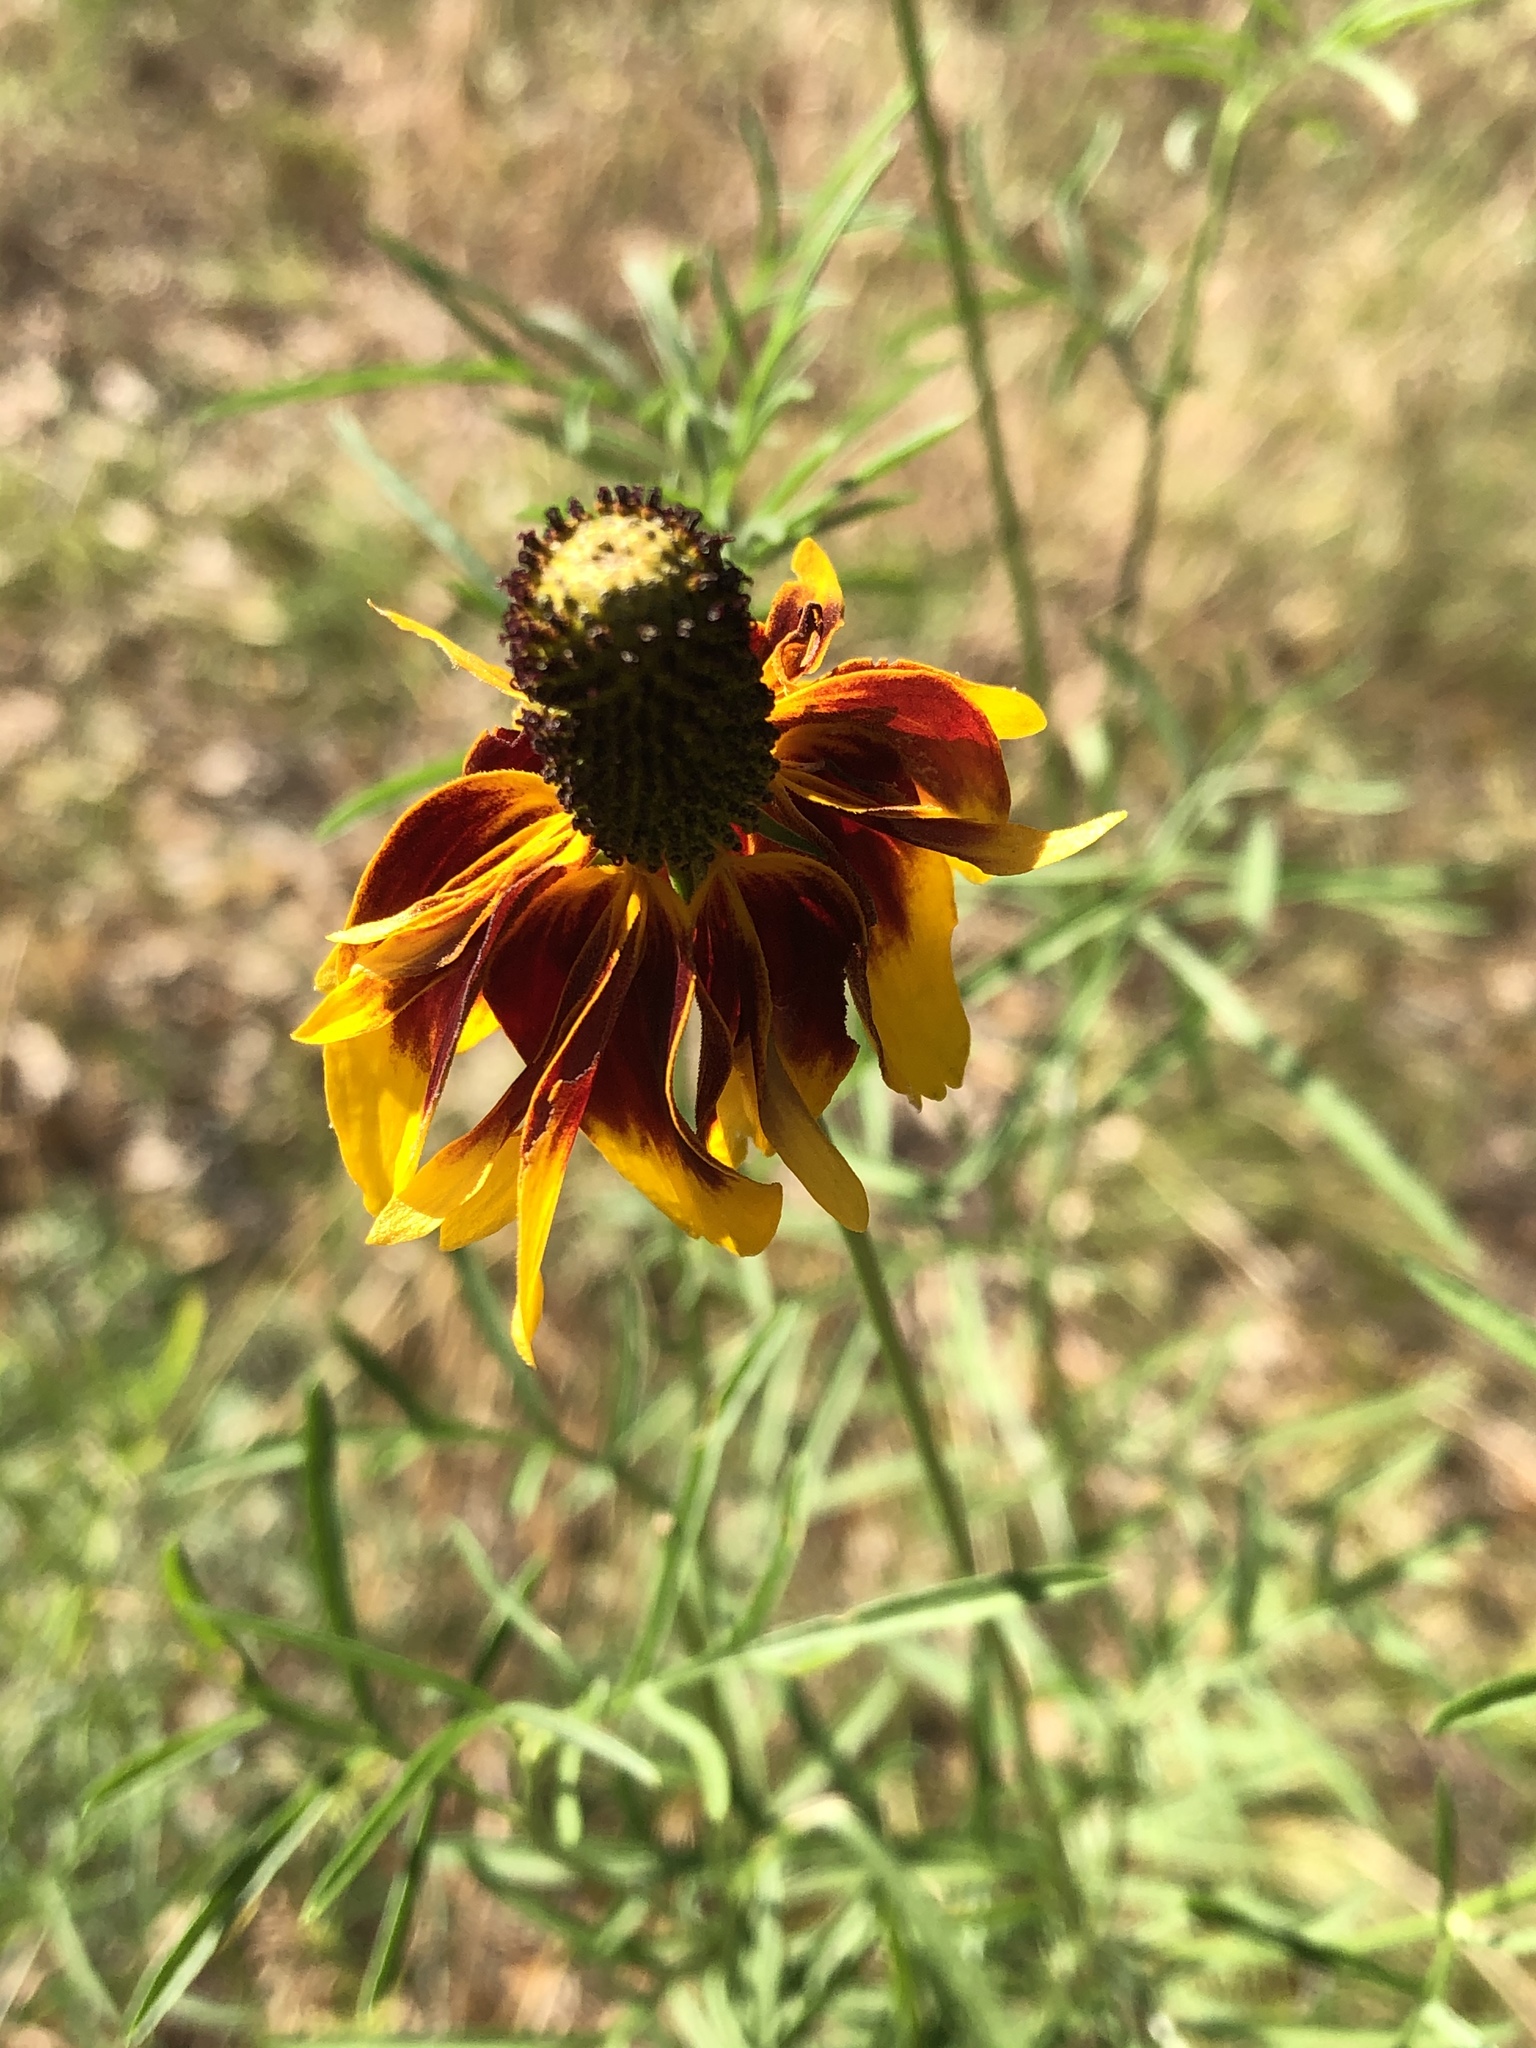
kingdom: Plantae
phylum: Tracheophyta
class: Magnoliopsida
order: Asterales
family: Asteraceae
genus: Ratibida
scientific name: Ratibida columnifera
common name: Prairie coneflower
